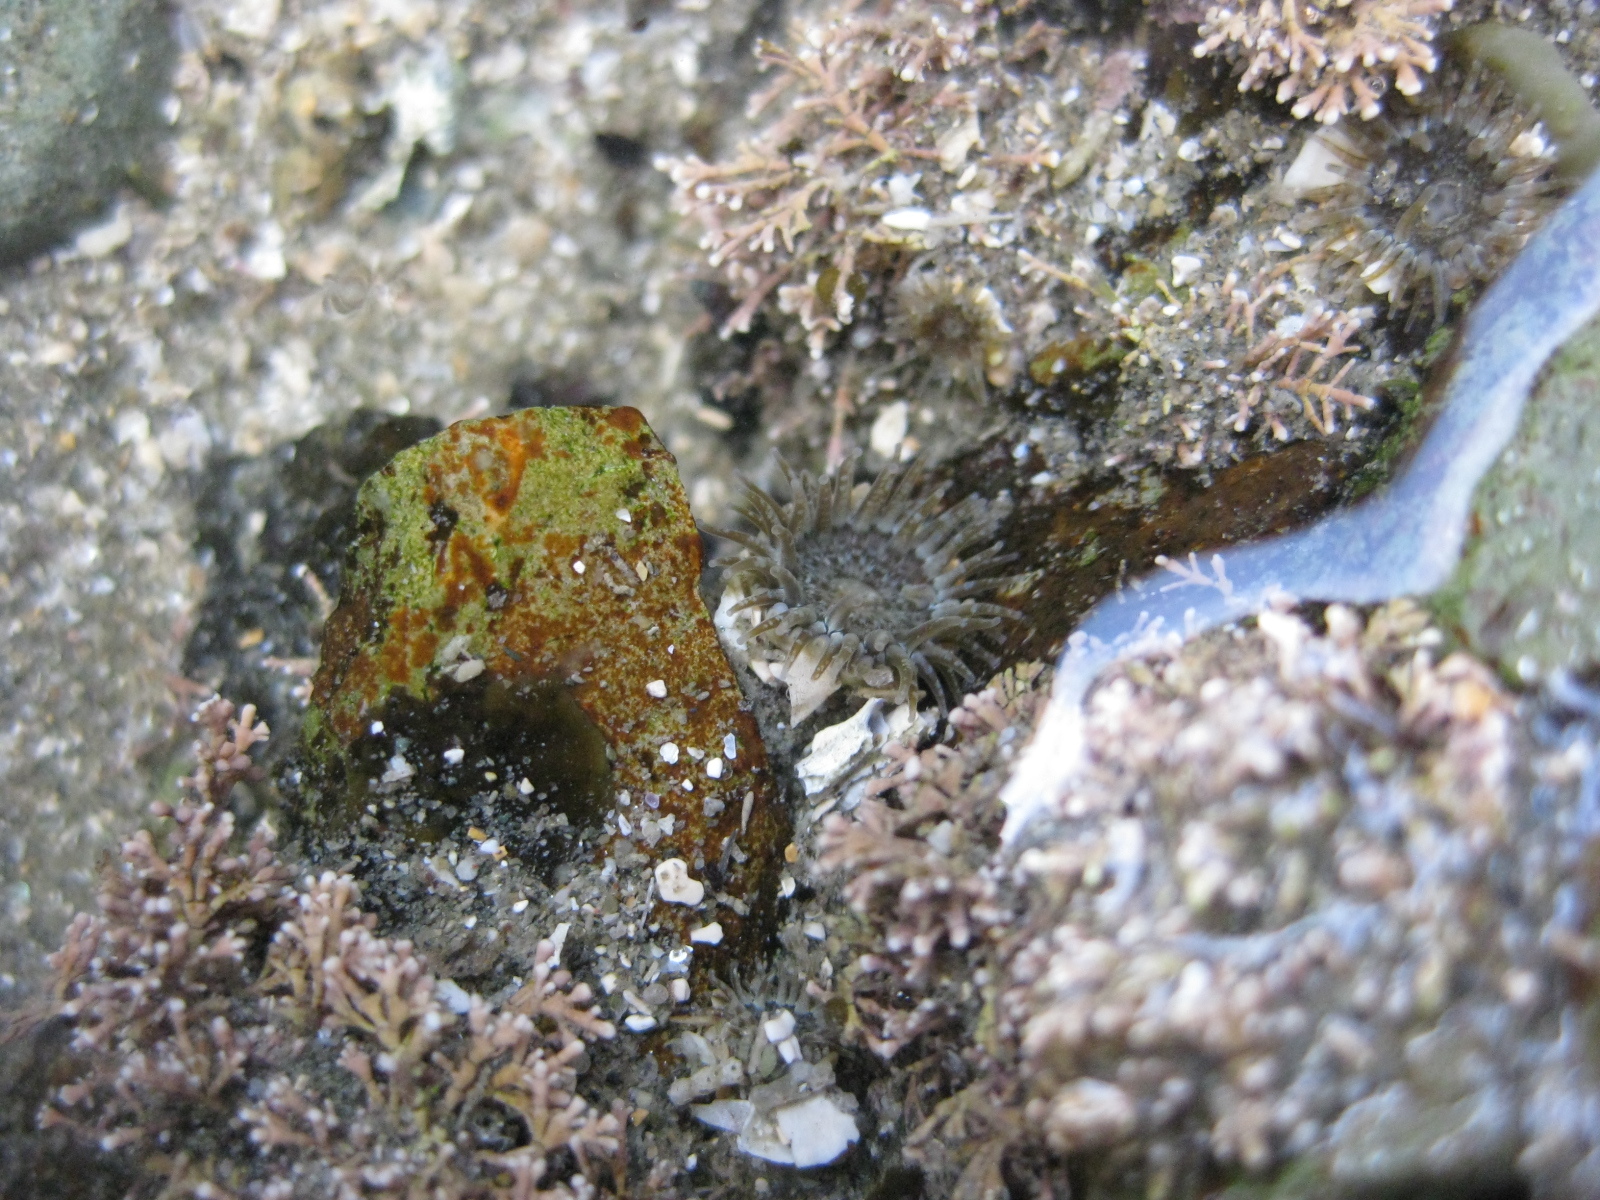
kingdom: Animalia
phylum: Cnidaria
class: Anthozoa
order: Actiniaria
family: Actiniidae
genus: Anthopleura
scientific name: Anthopleura hermaphroditica
